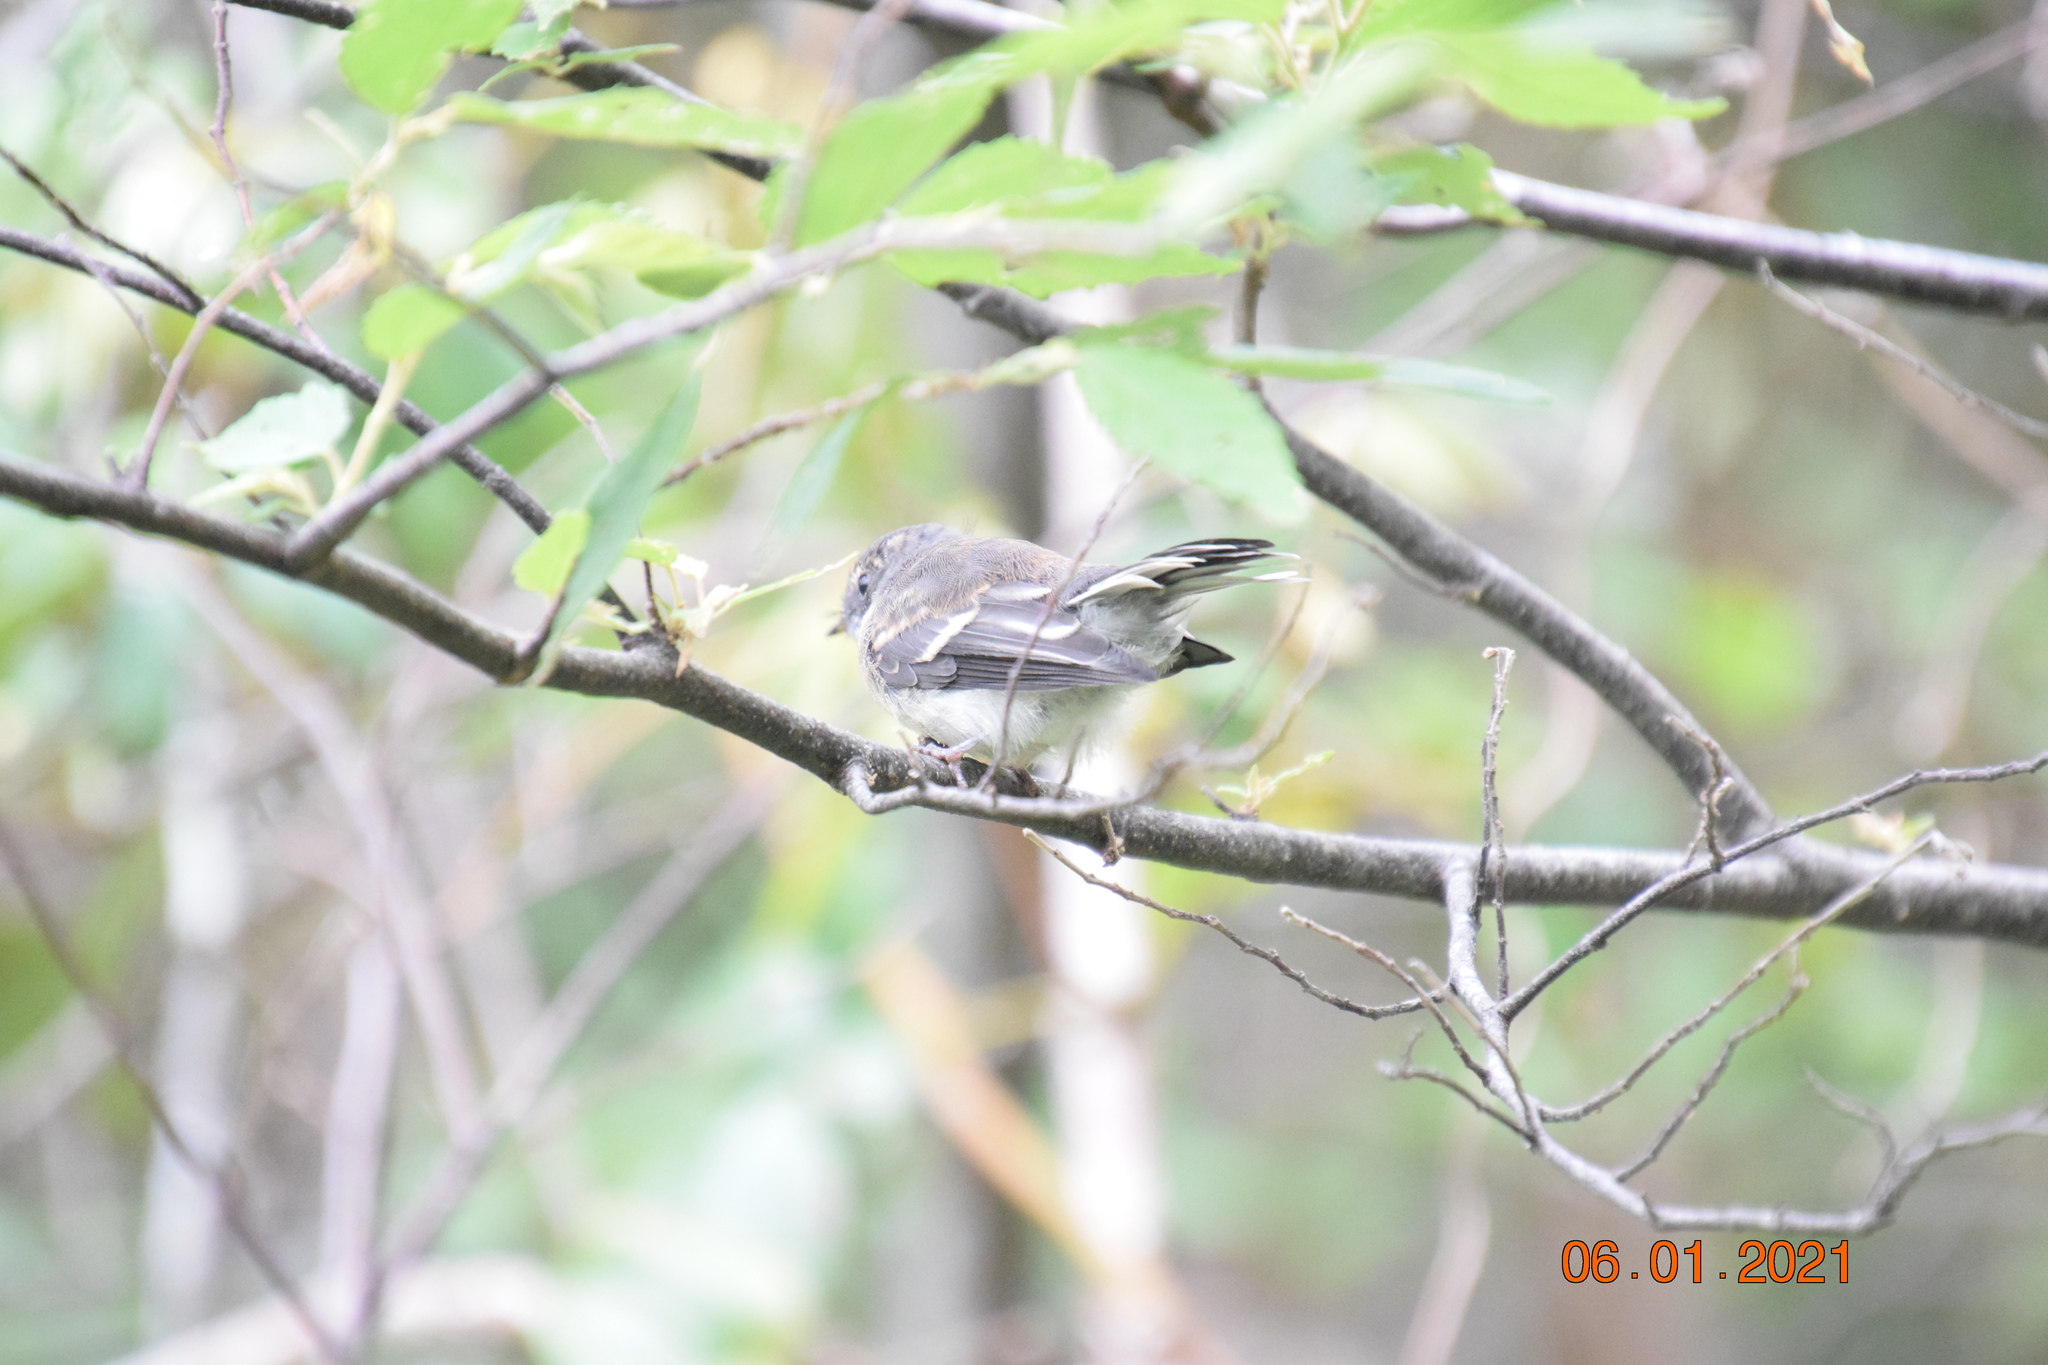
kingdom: Animalia
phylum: Chordata
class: Aves
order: Passeriformes
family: Rhipiduridae
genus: Rhipidura
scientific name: Rhipidura albiscapa
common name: Grey fantail
